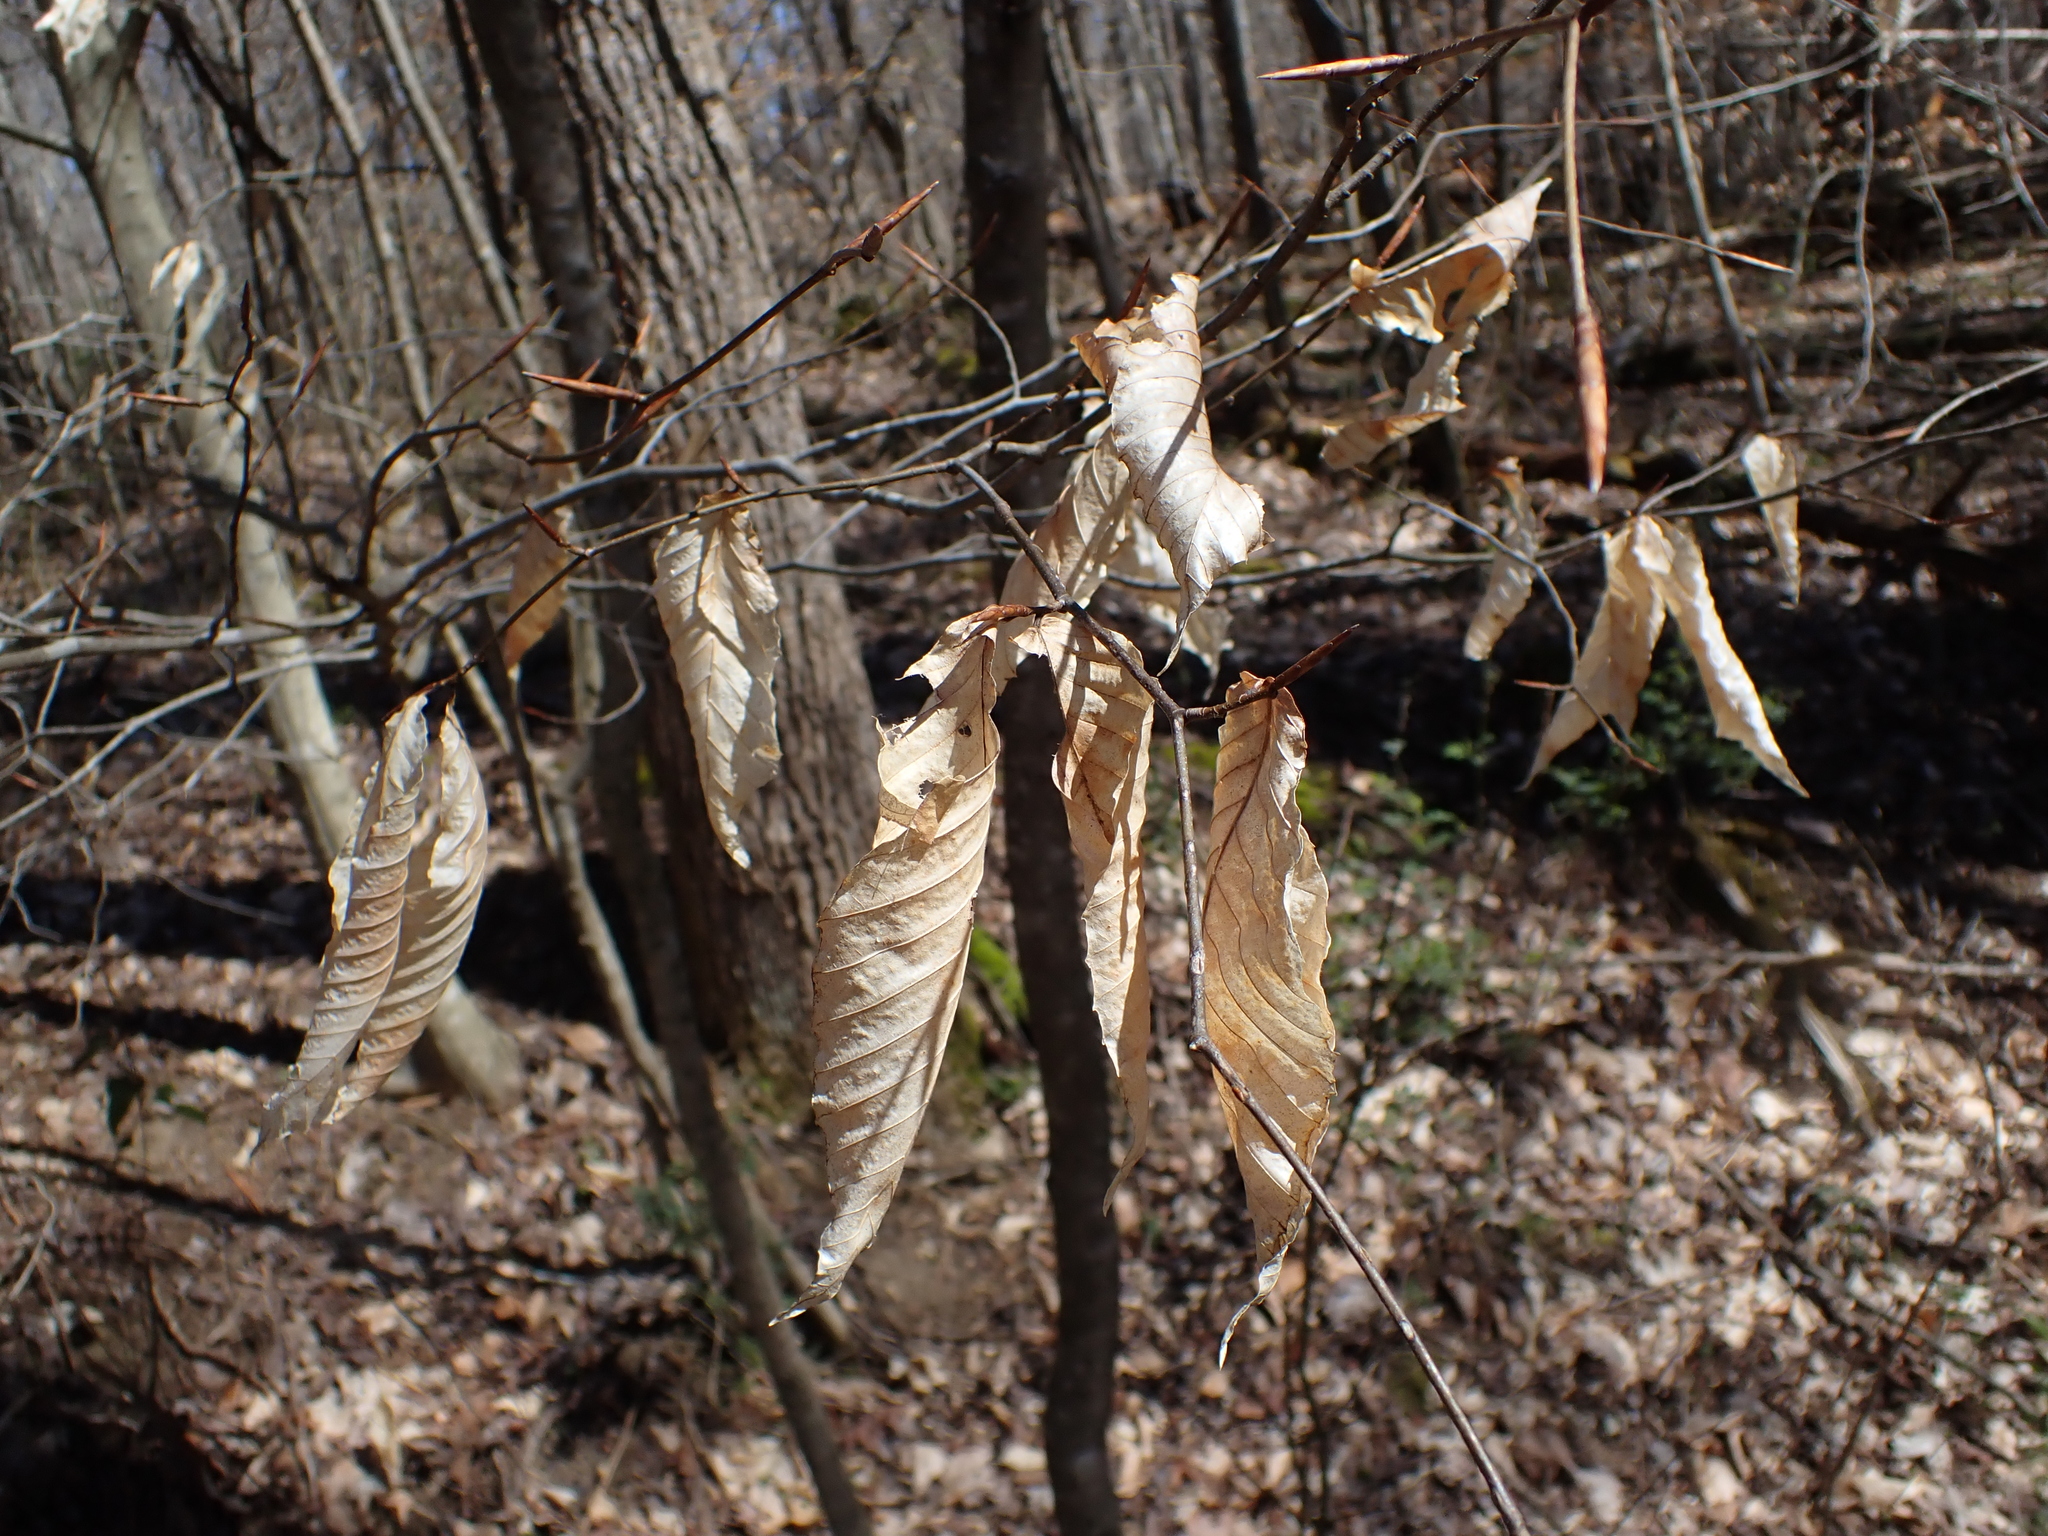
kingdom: Plantae
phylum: Tracheophyta
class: Magnoliopsida
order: Fagales
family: Fagaceae
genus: Fagus
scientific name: Fagus grandifolia
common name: American beech
